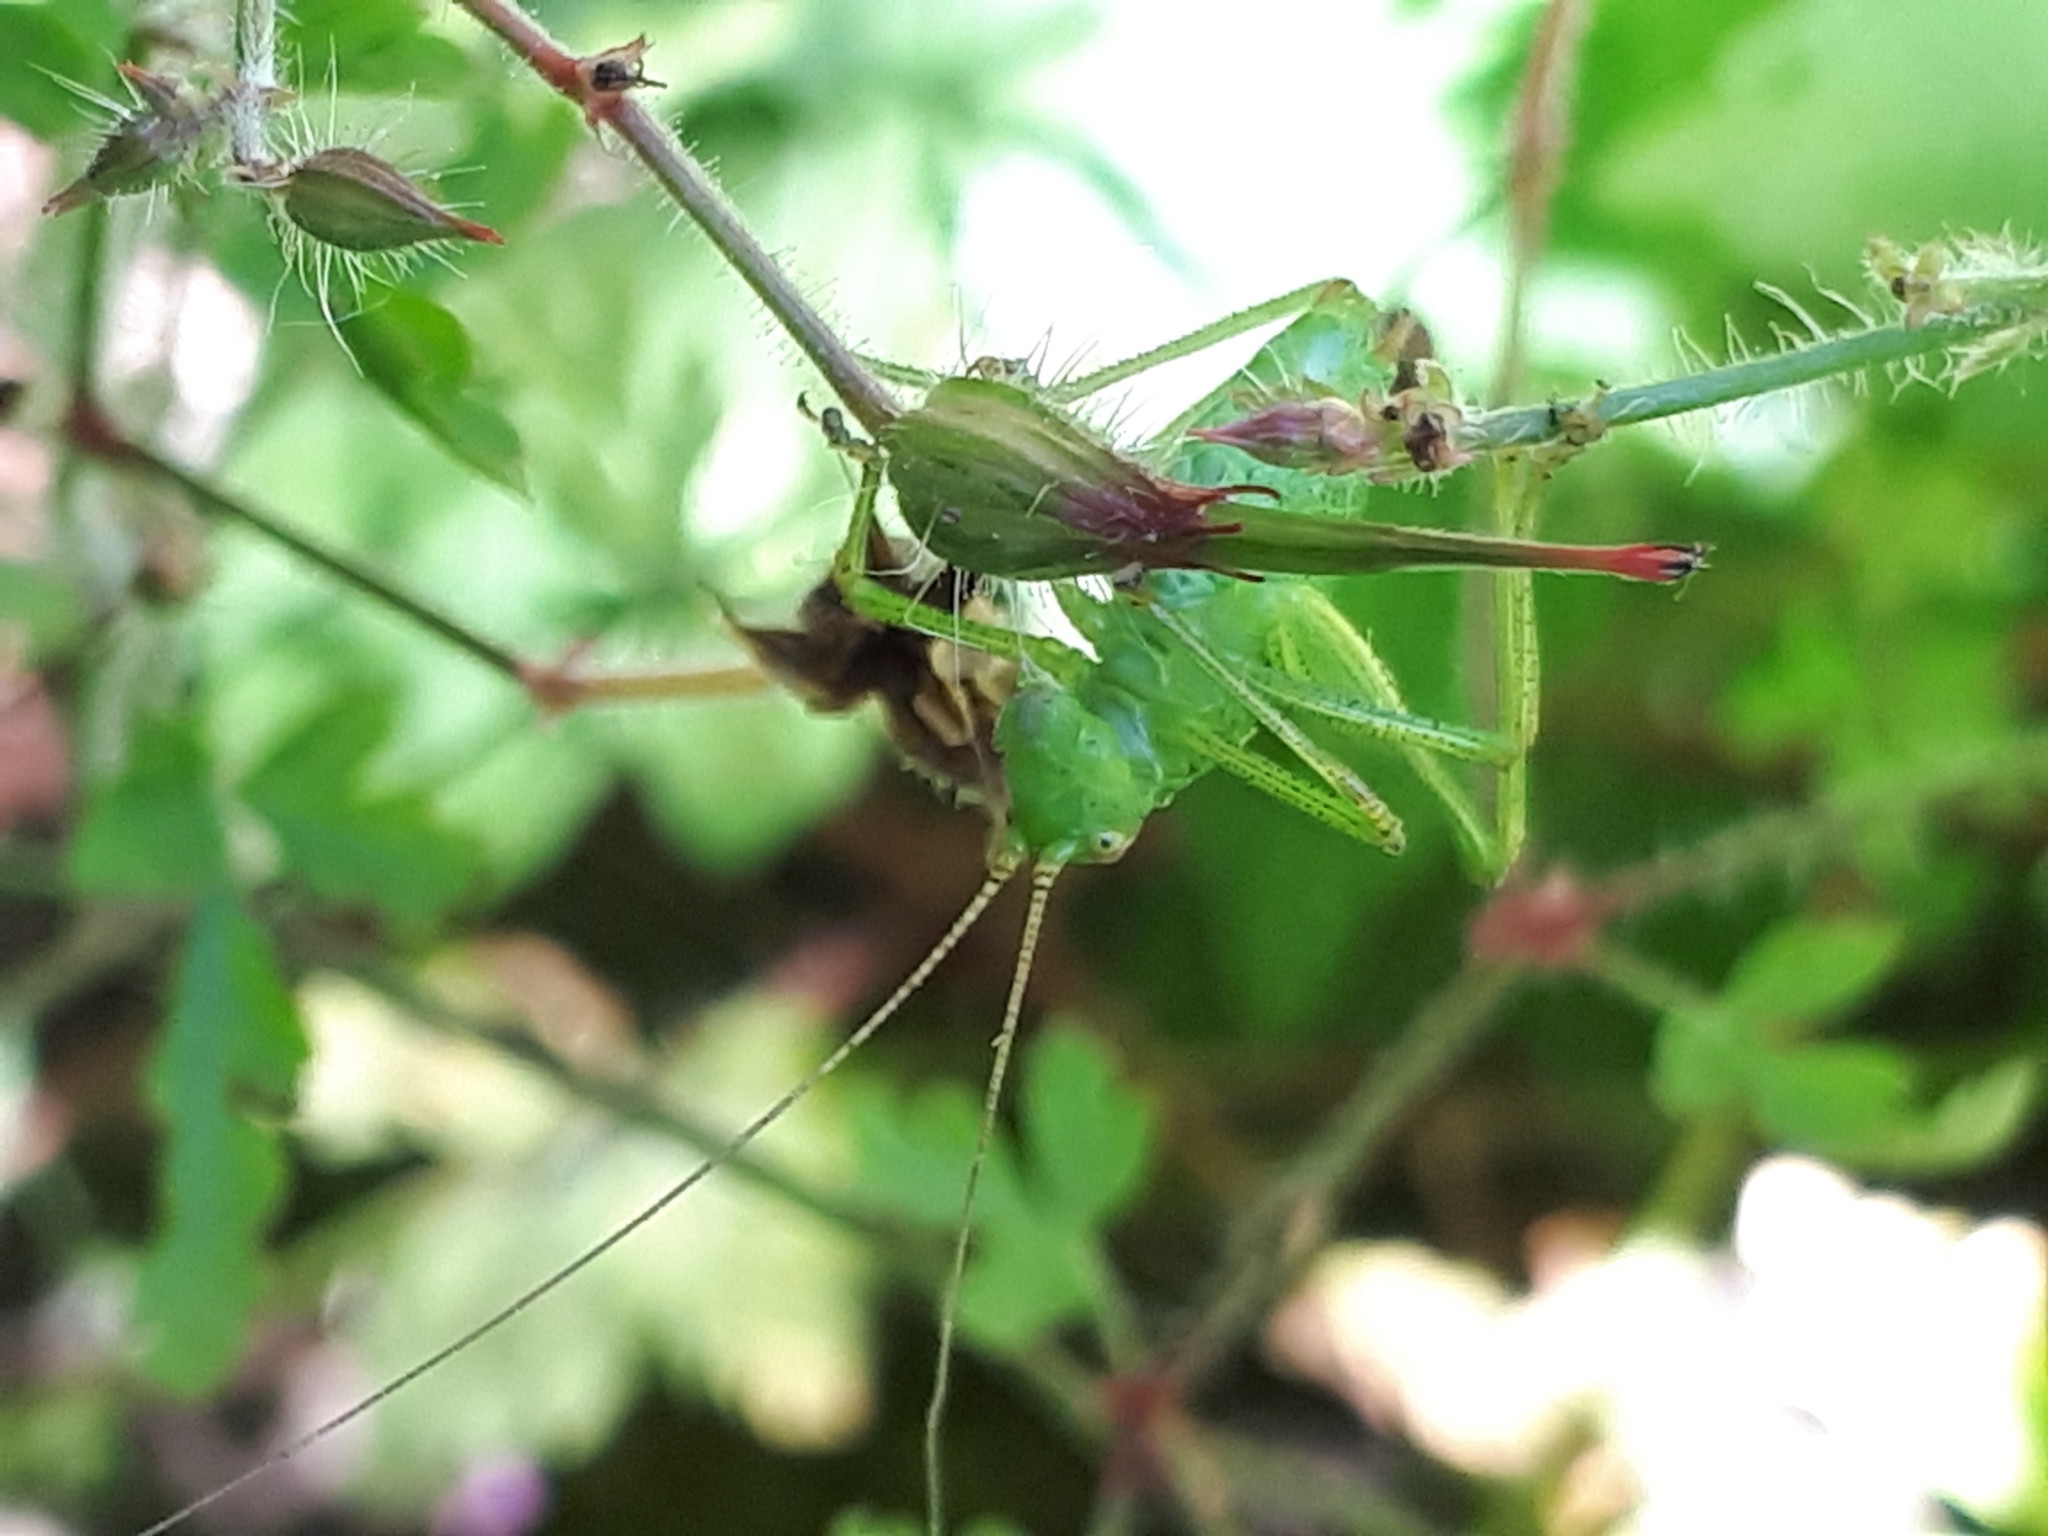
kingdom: Animalia
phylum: Arthropoda
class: Insecta
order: Orthoptera
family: Tettigoniidae
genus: Leptophyes
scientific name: Leptophyes punctatissima
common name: Speckled bush-cricket
